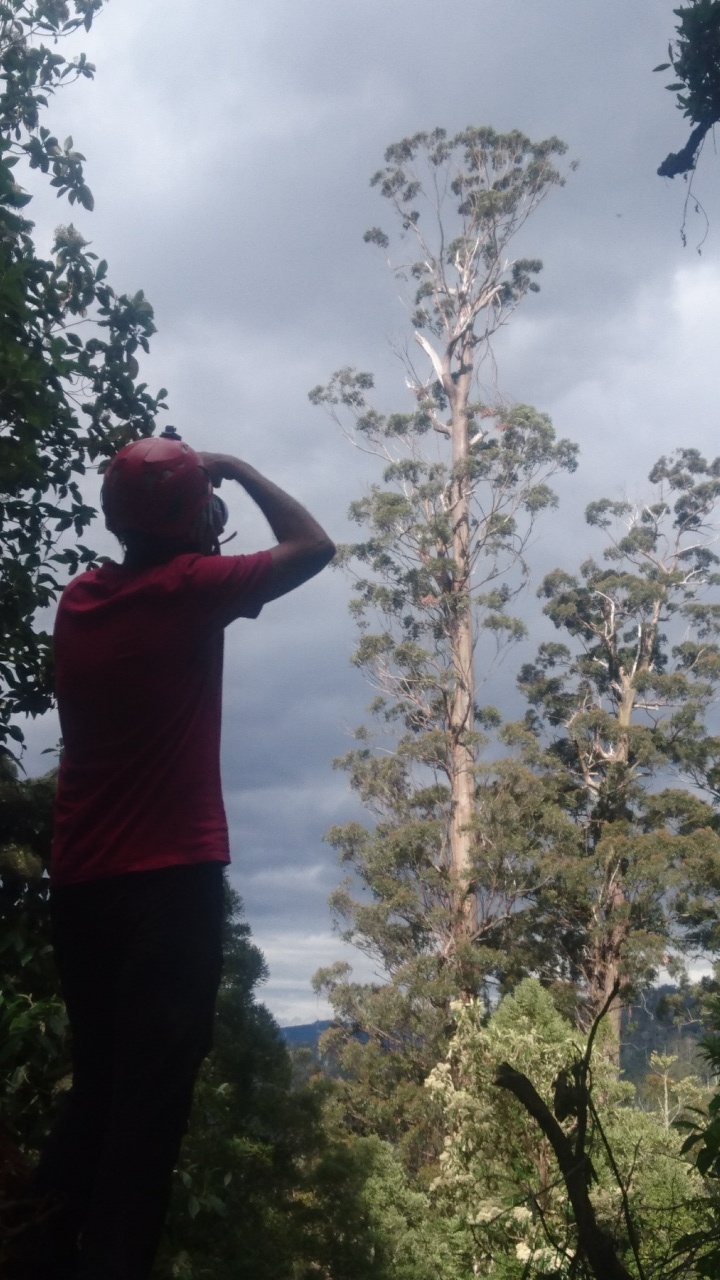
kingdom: Plantae
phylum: Tracheophyta
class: Magnoliopsida
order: Myrtales
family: Myrtaceae
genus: Eucalyptus
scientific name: Eucalyptus regnans
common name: Stringy gum
